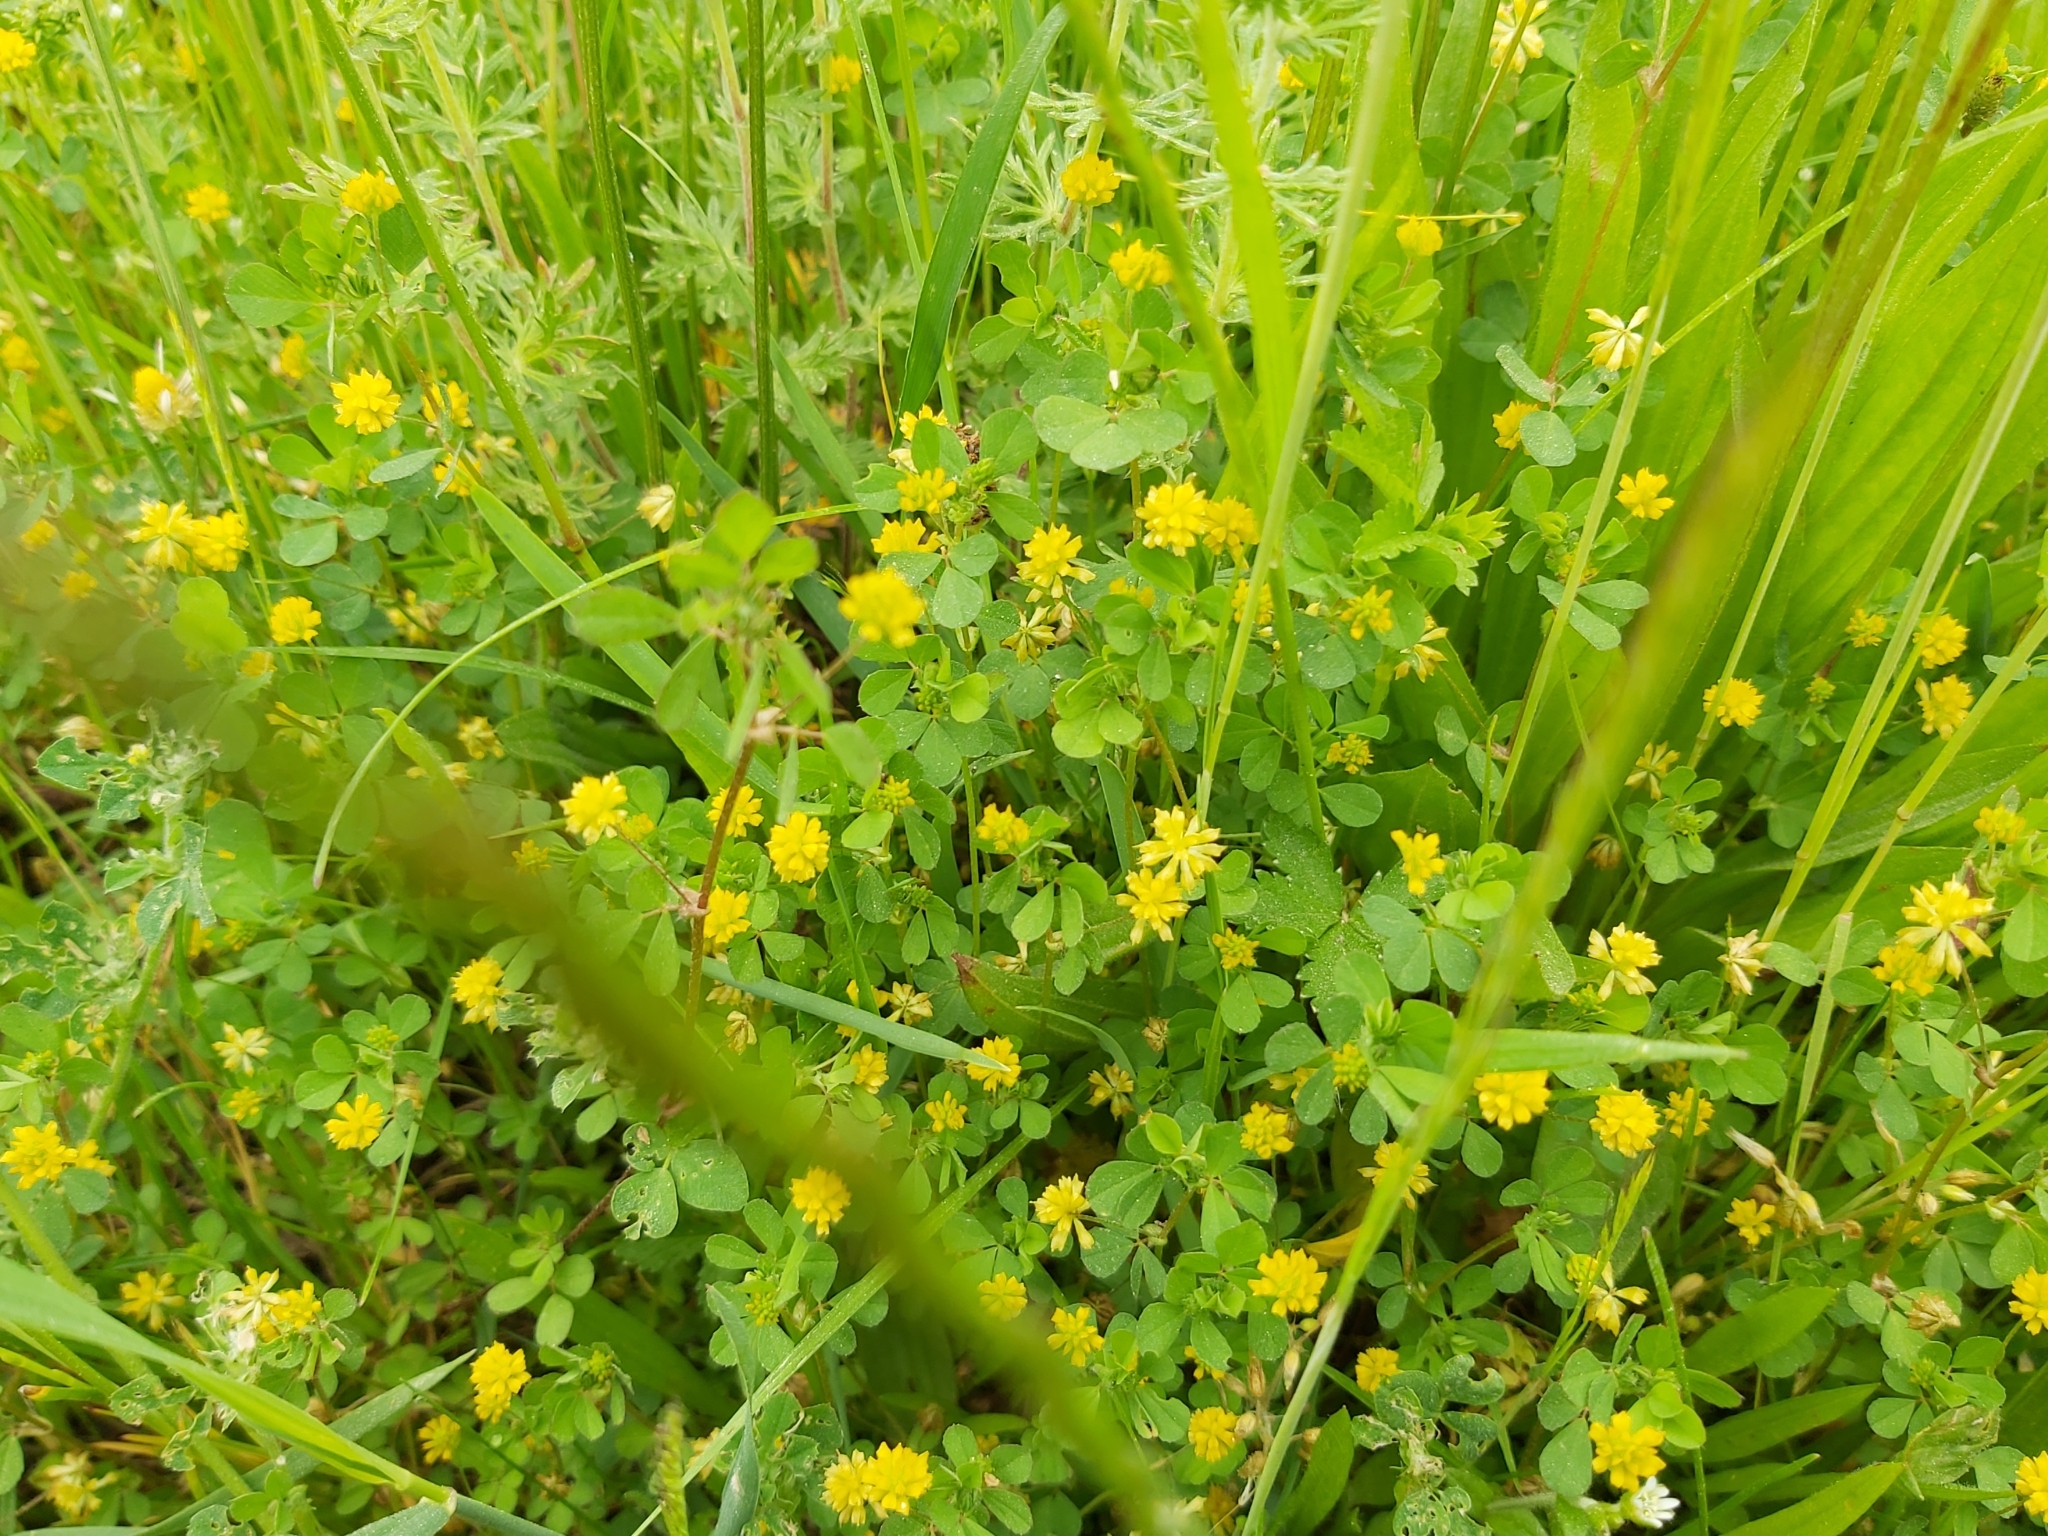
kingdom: Plantae
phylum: Tracheophyta
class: Magnoliopsida
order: Fabales
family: Fabaceae
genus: Trifolium
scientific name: Trifolium dubium
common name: Suckling clover
